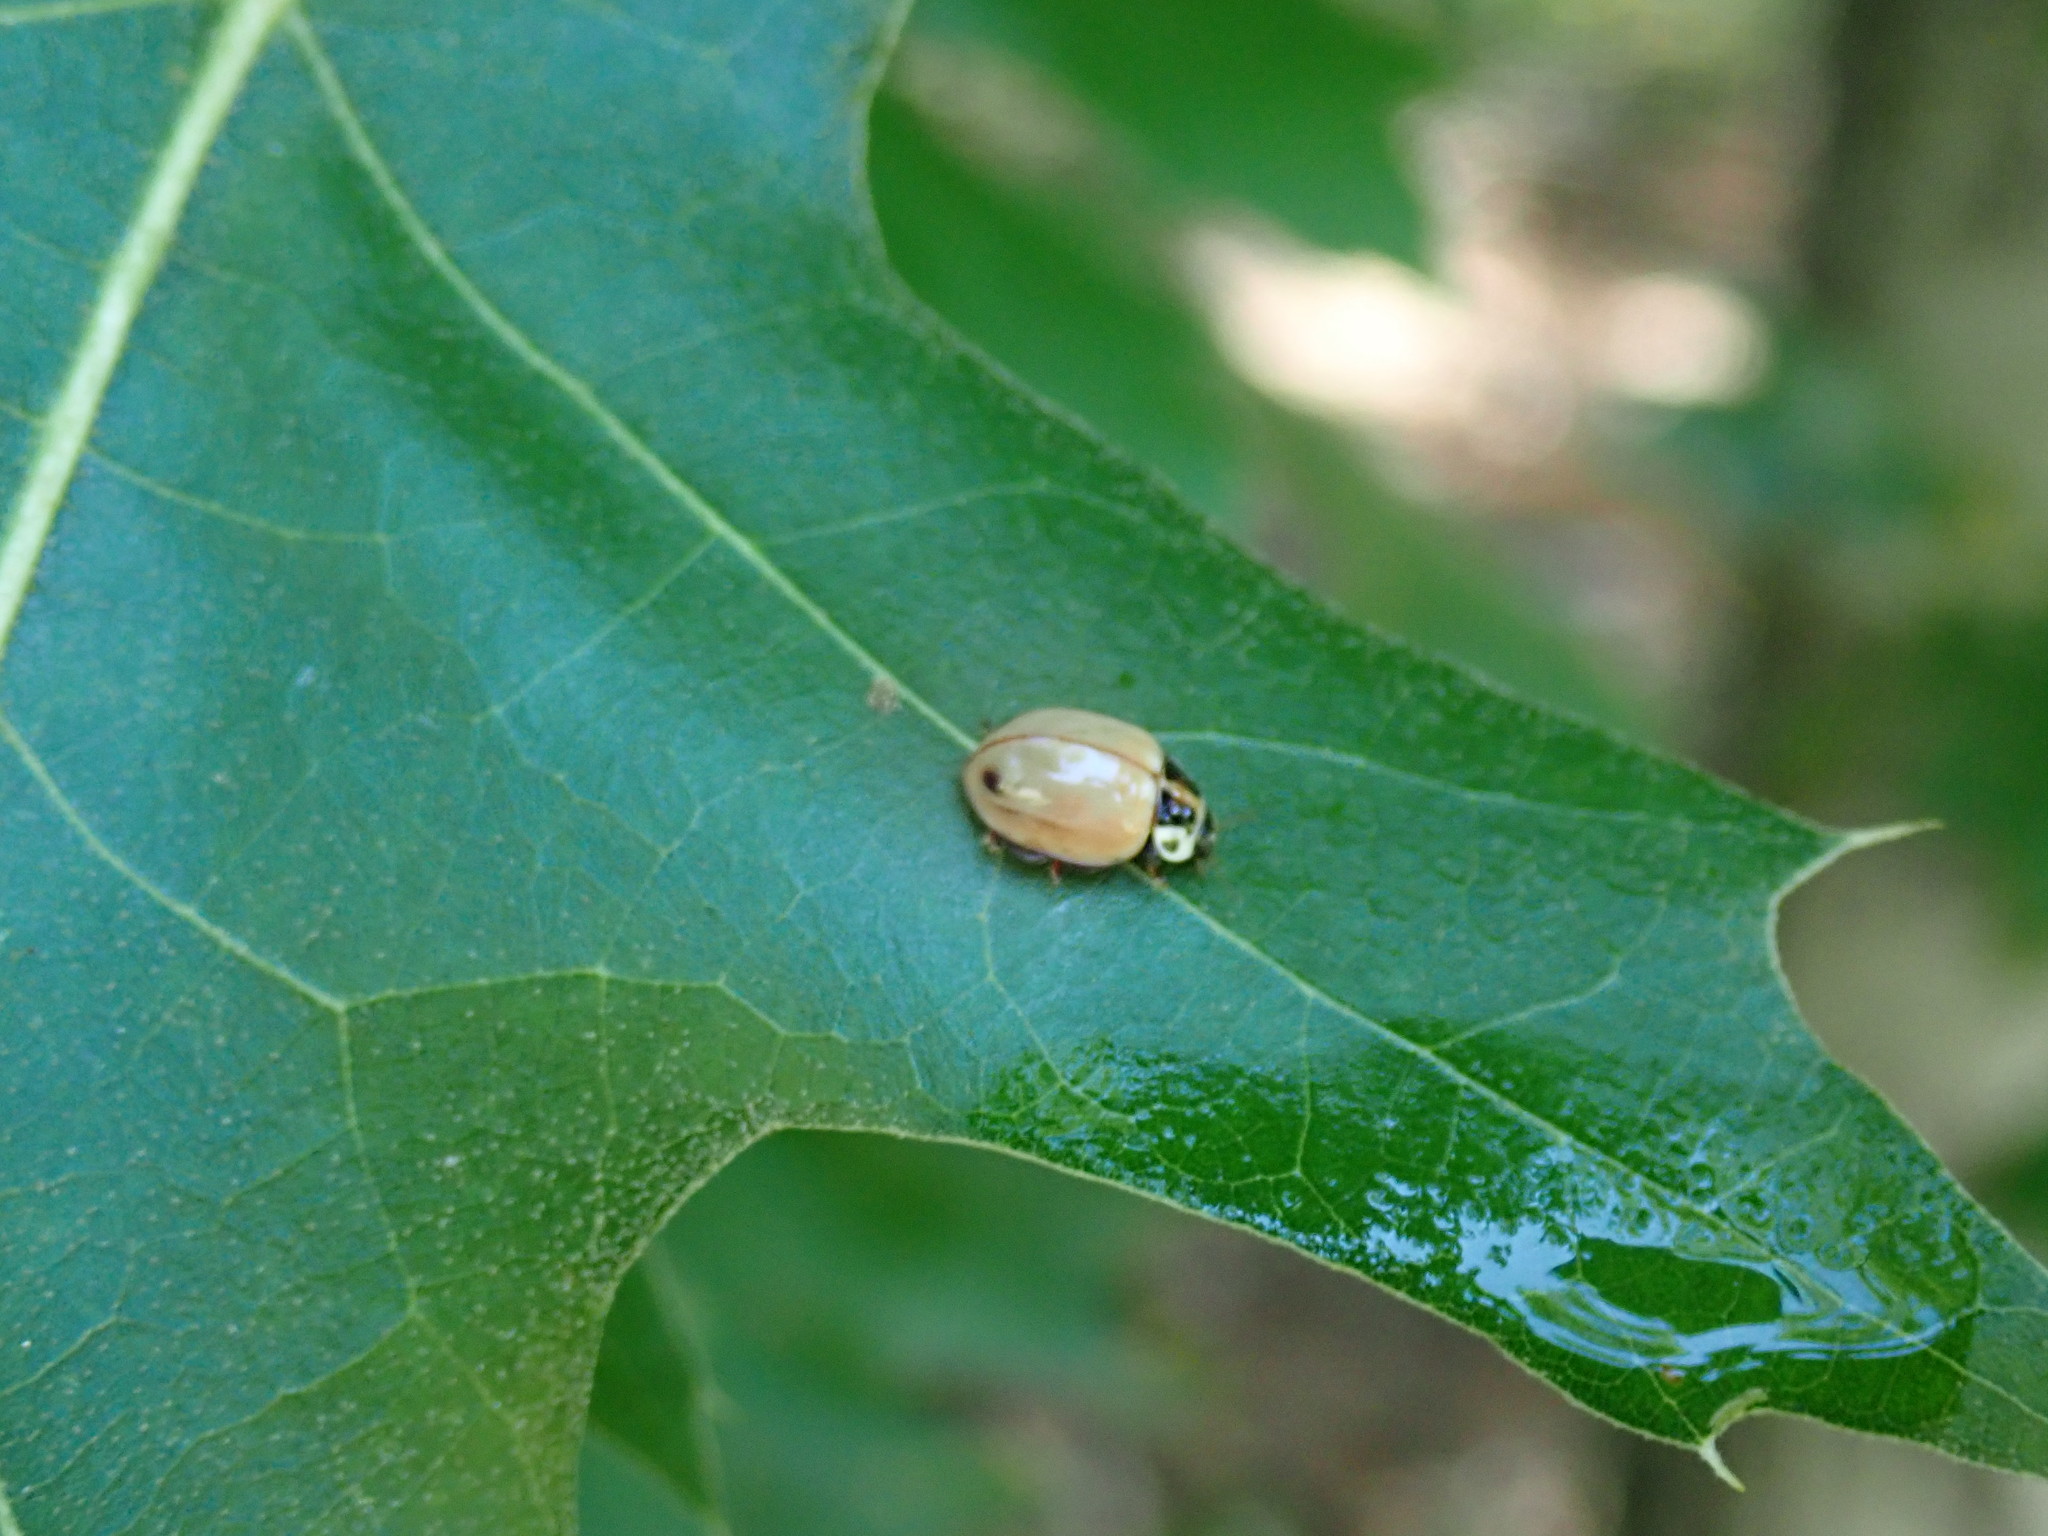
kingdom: Animalia
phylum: Arthropoda
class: Insecta
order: Coleoptera
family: Coccinellidae
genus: Myzia
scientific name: Myzia pullata
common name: Streaked lady beetle
